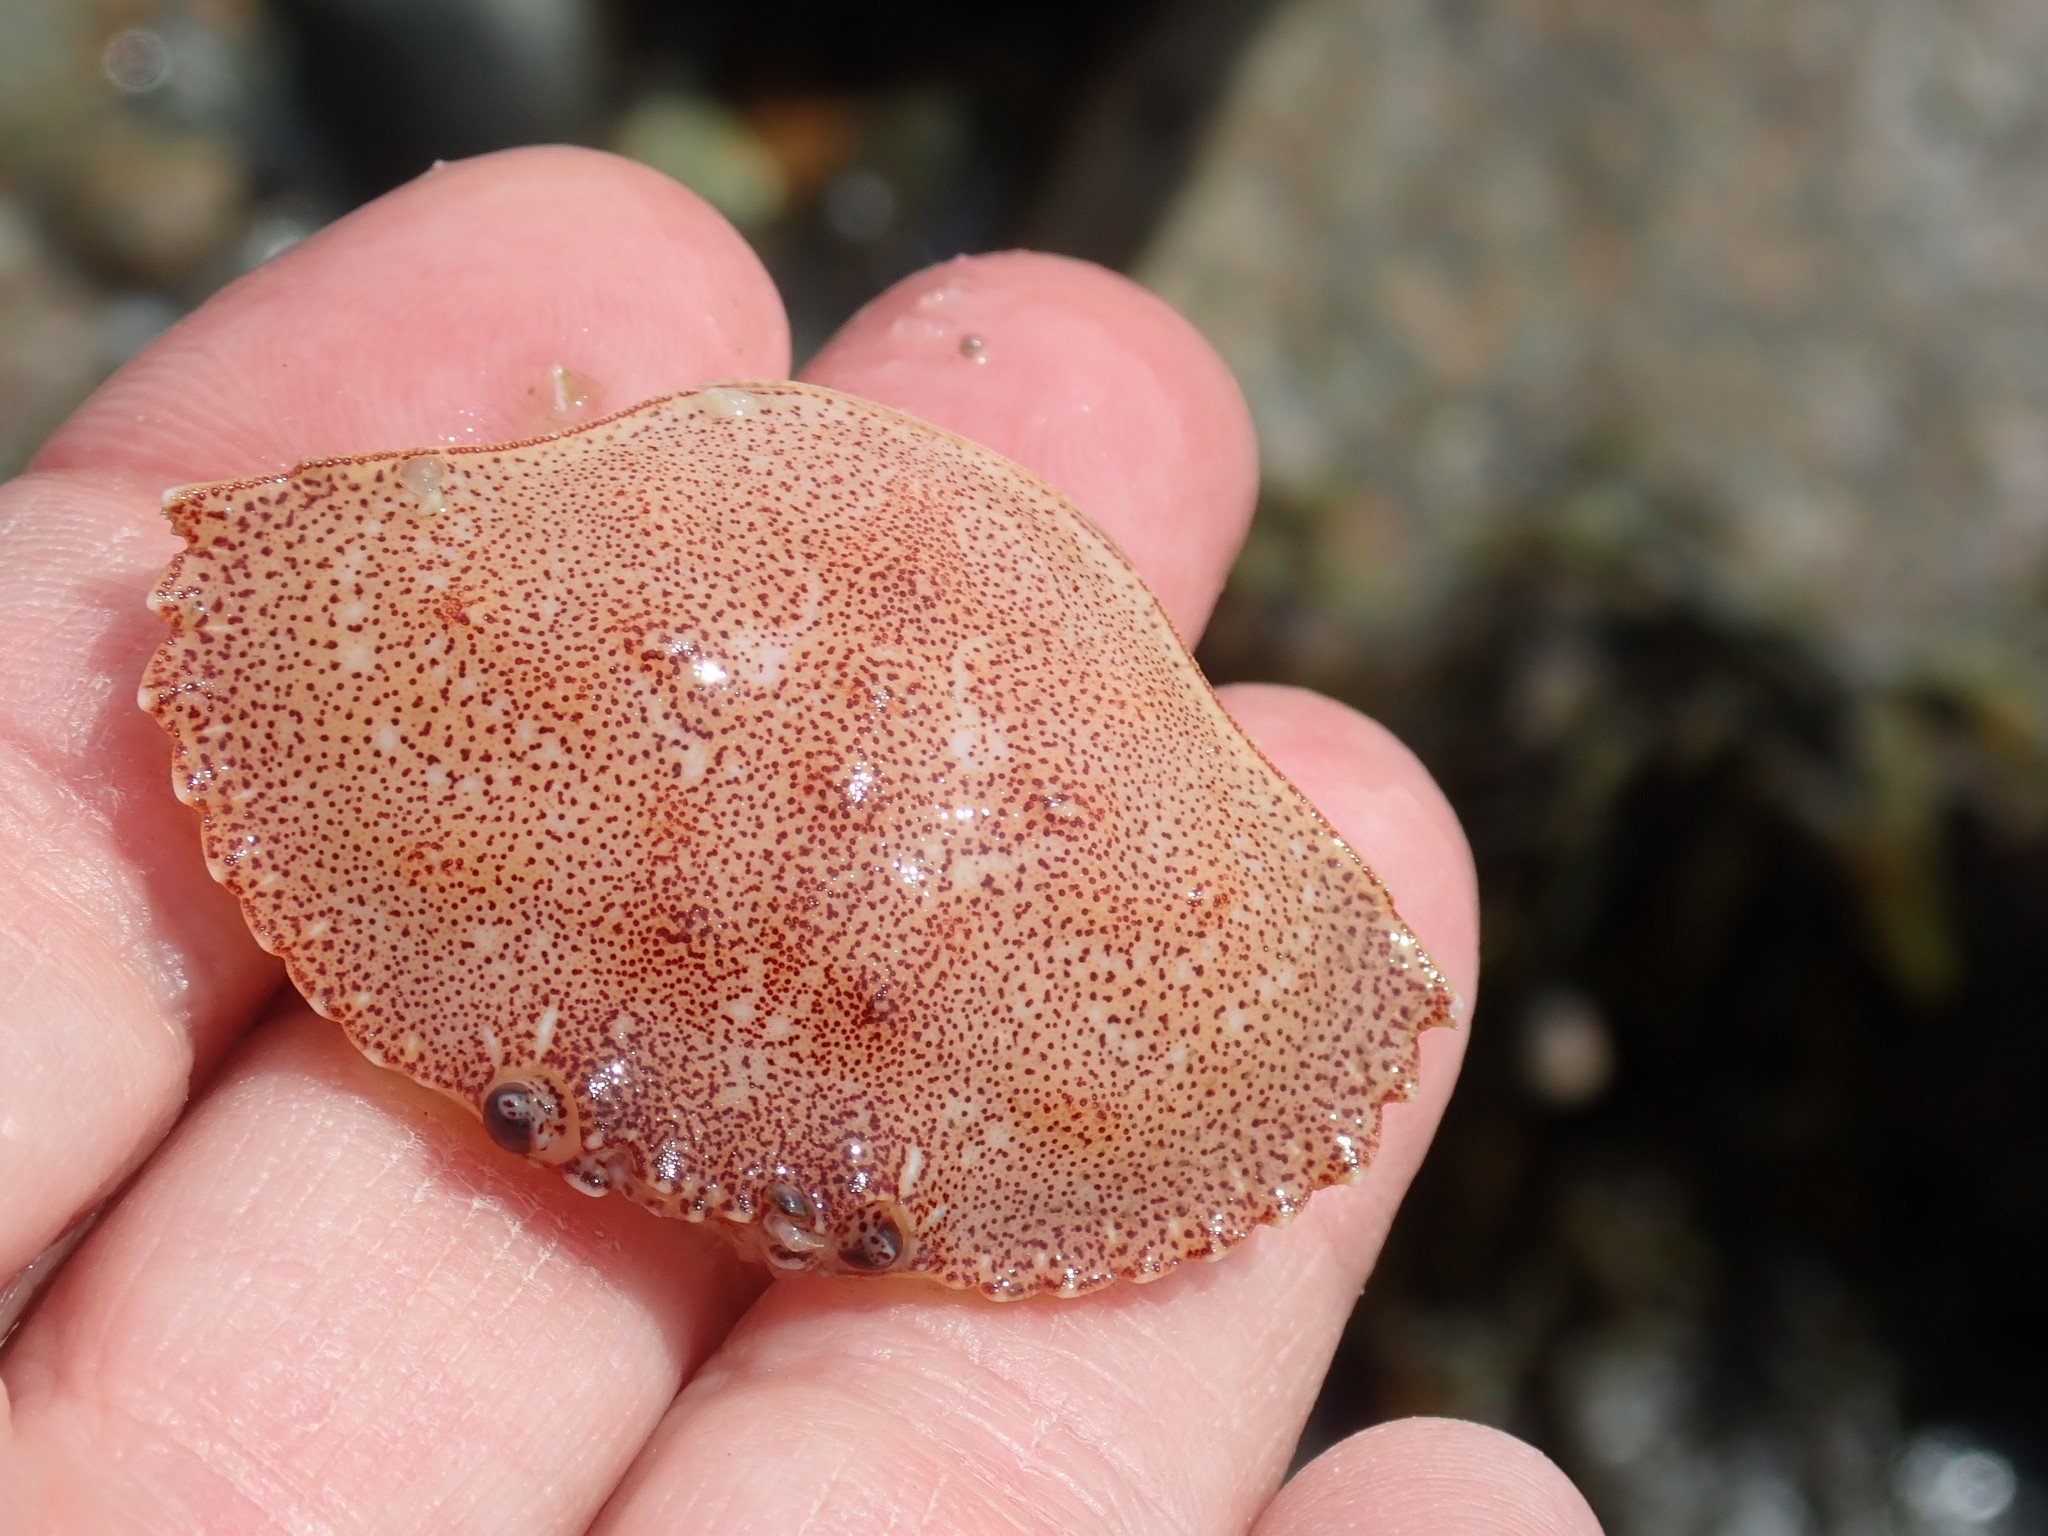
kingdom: Animalia
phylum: Arthropoda
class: Malacostraca
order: Decapoda
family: Cancridae
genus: Cancer
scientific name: Cancer irroratus
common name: Atlantic rock crab
